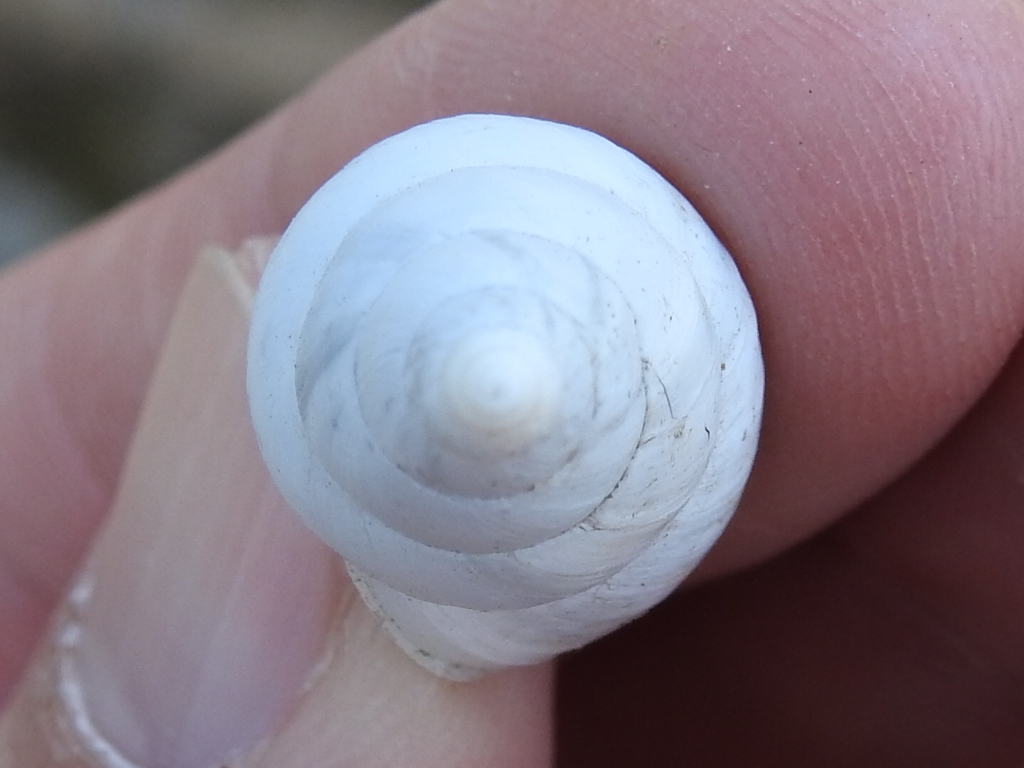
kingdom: Animalia
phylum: Mollusca
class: Gastropoda
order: Stylommatophora
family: Bulimulidae
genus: Rabdotus
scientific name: Rabdotus alternatus
